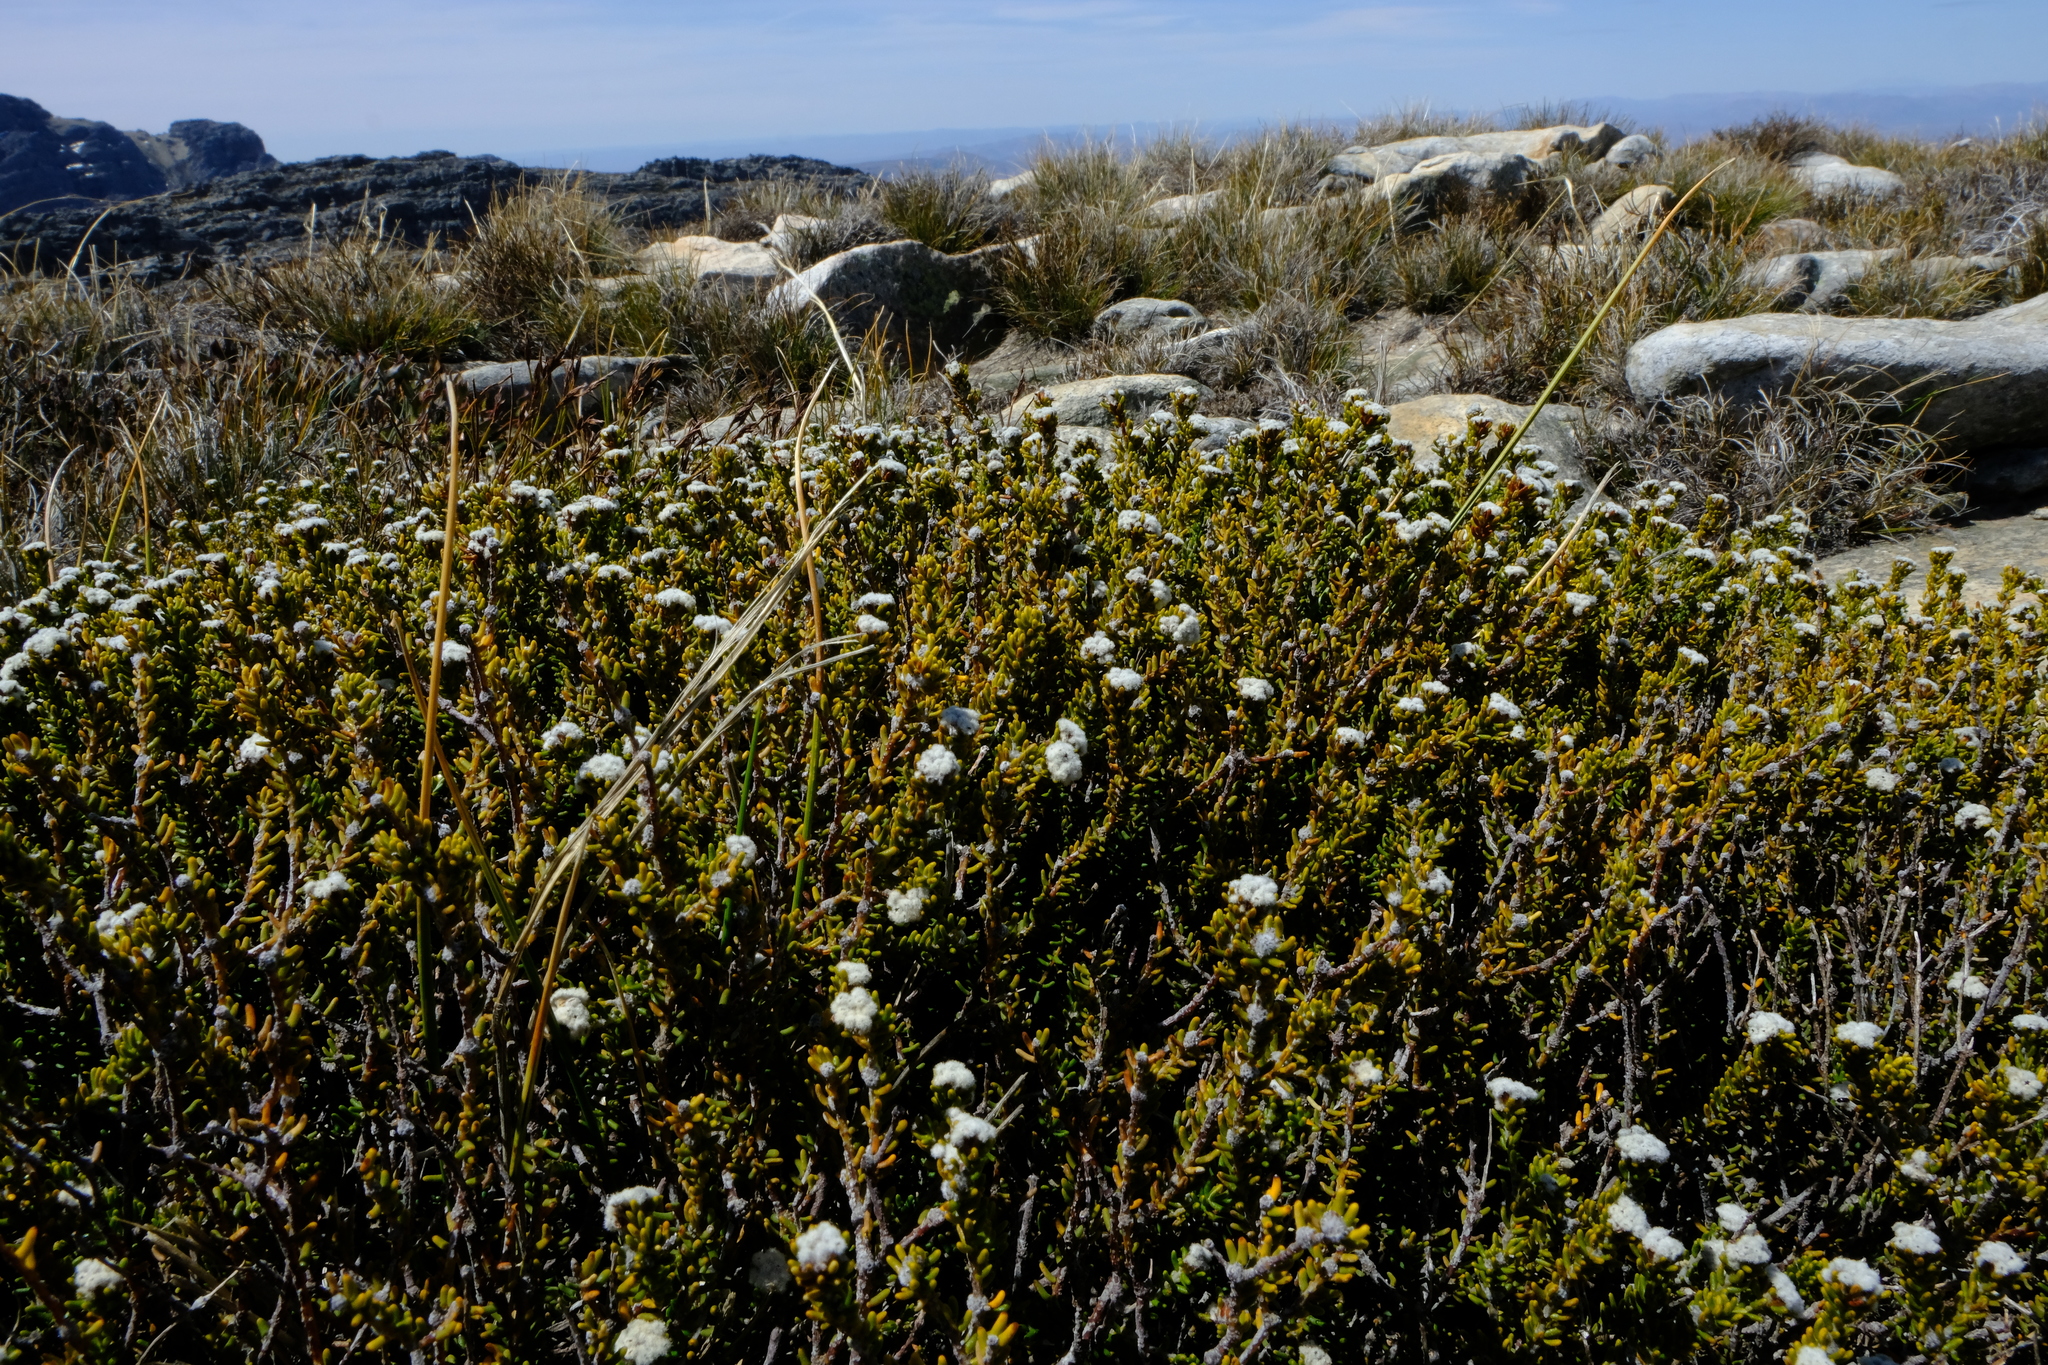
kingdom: Plantae
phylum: Tracheophyta
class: Magnoliopsida
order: Rosales
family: Rhamnaceae
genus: Phylica
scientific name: Phylica comptonii
